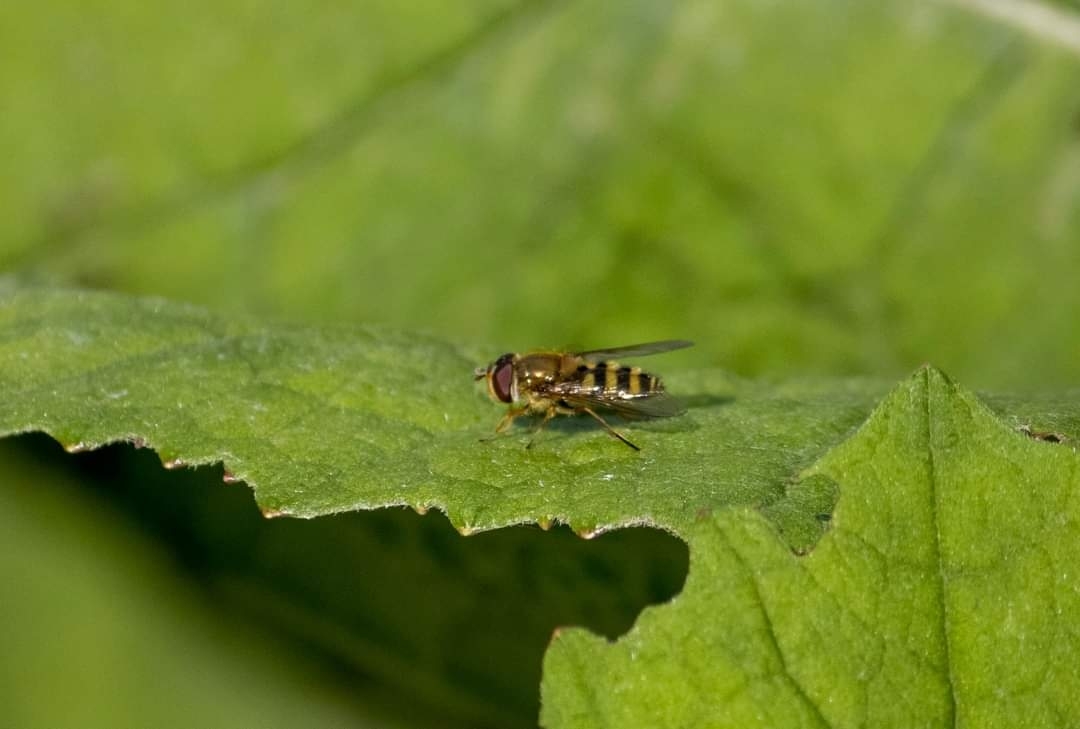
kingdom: Animalia
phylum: Arthropoda
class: Insecta
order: Diptera
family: Syrphidae
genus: Syrphus
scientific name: Syrphus
